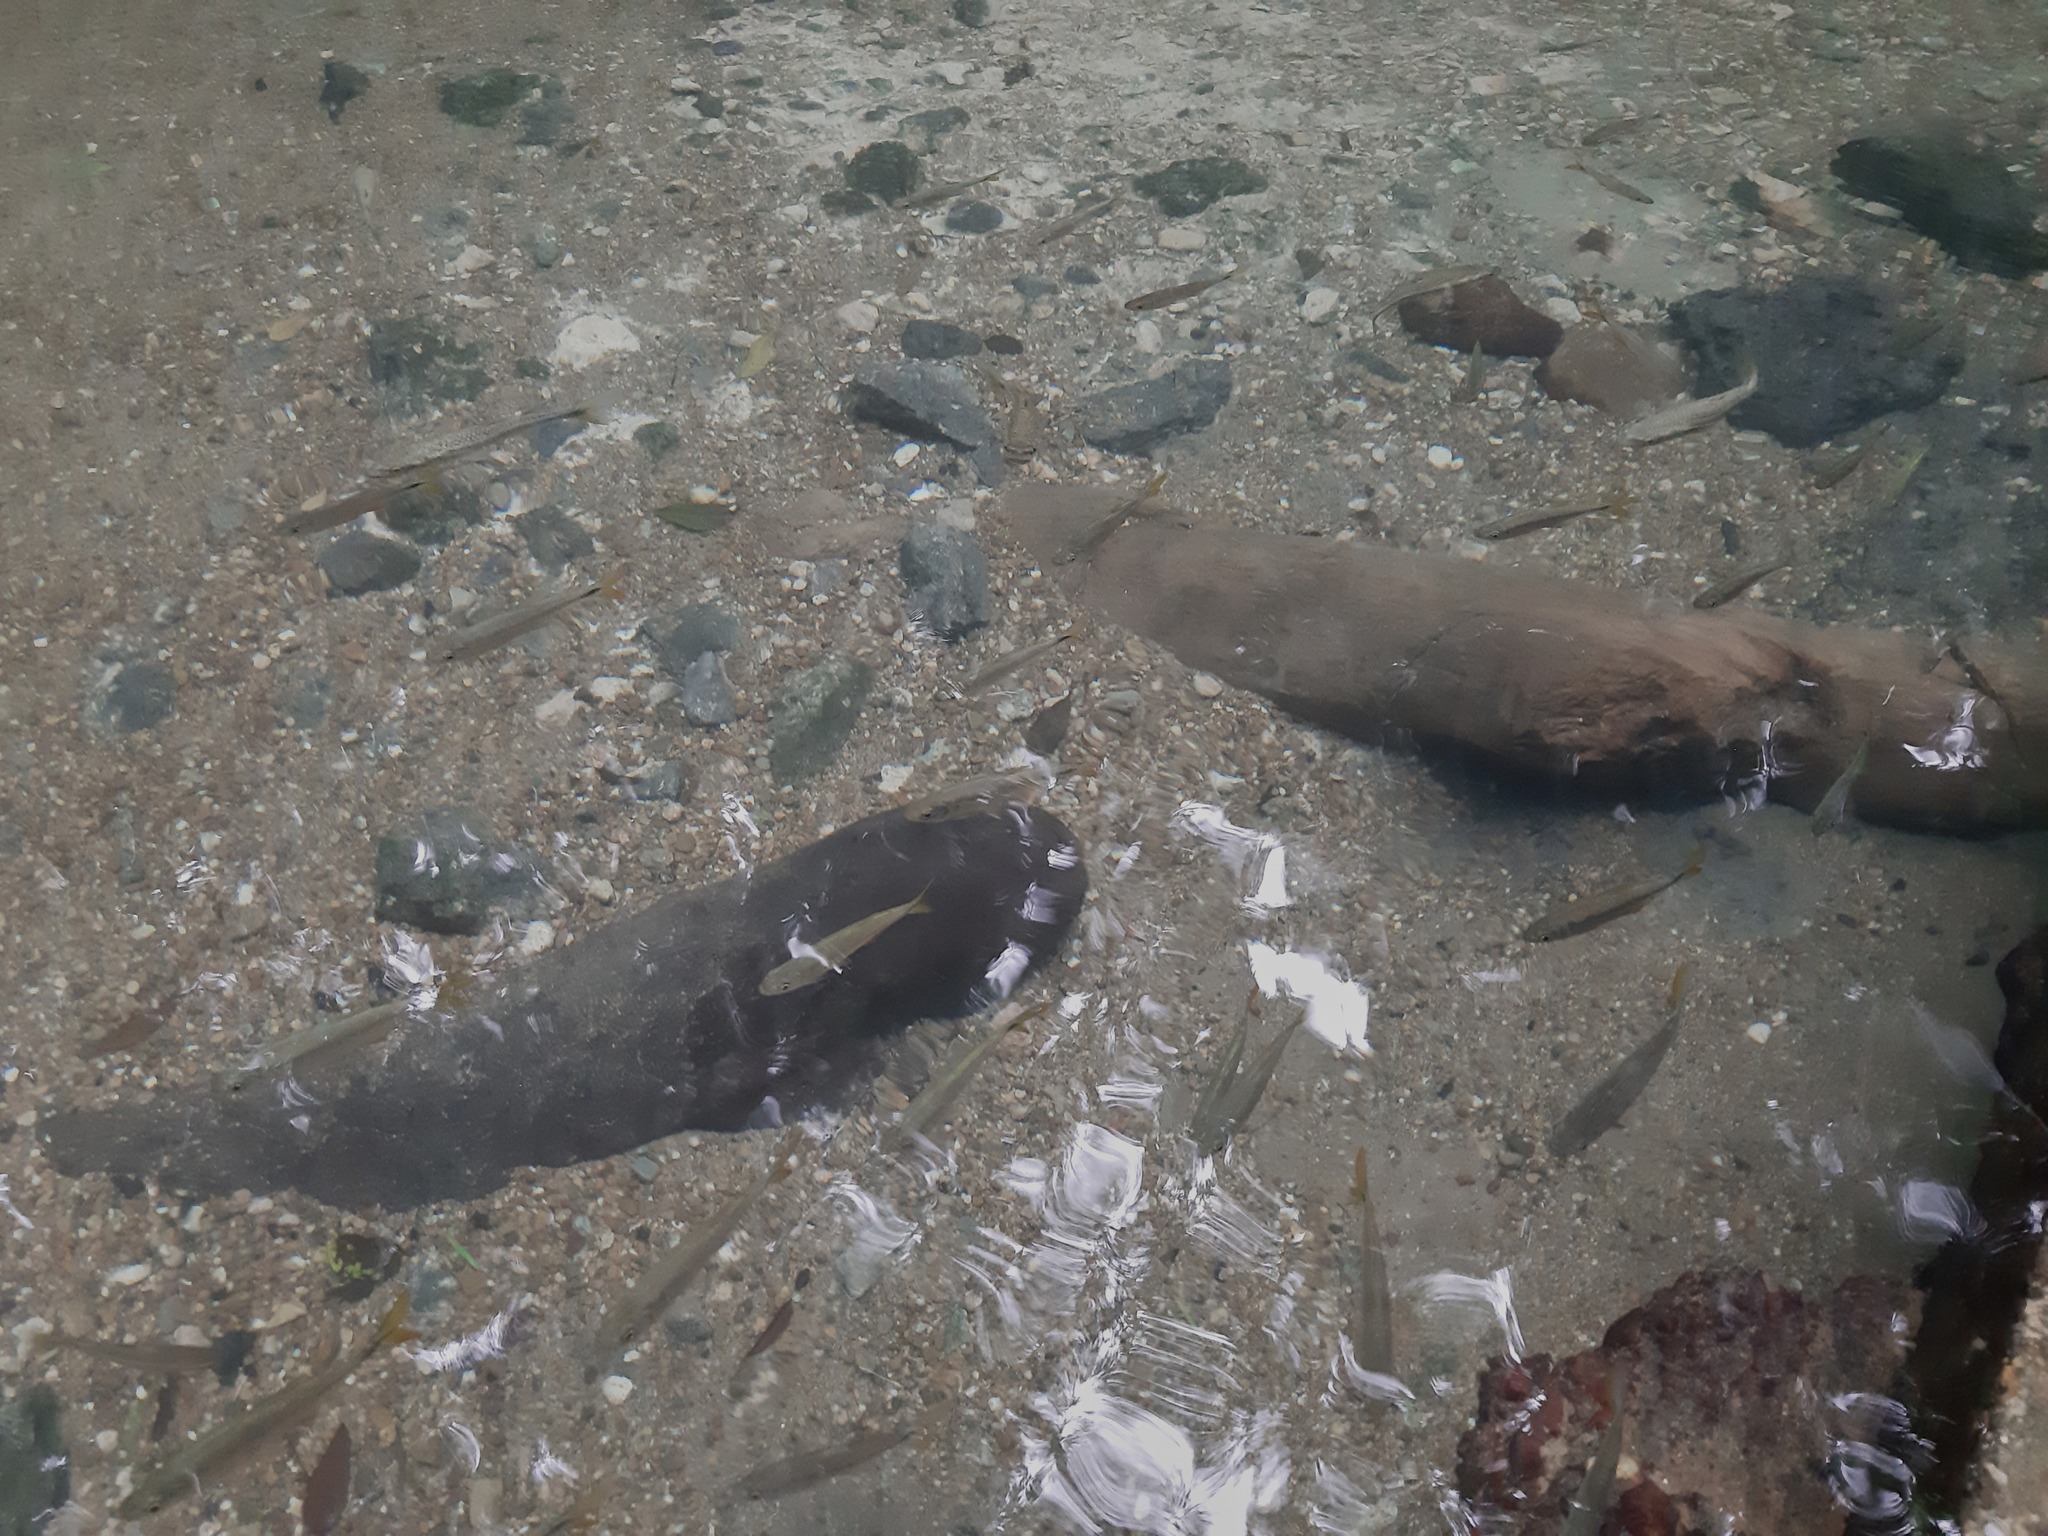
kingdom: Animalia
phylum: Chordata
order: Mugiliformes
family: Mugilidae
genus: Dajaus
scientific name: Dajaus monticola
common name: Mountain mullet
